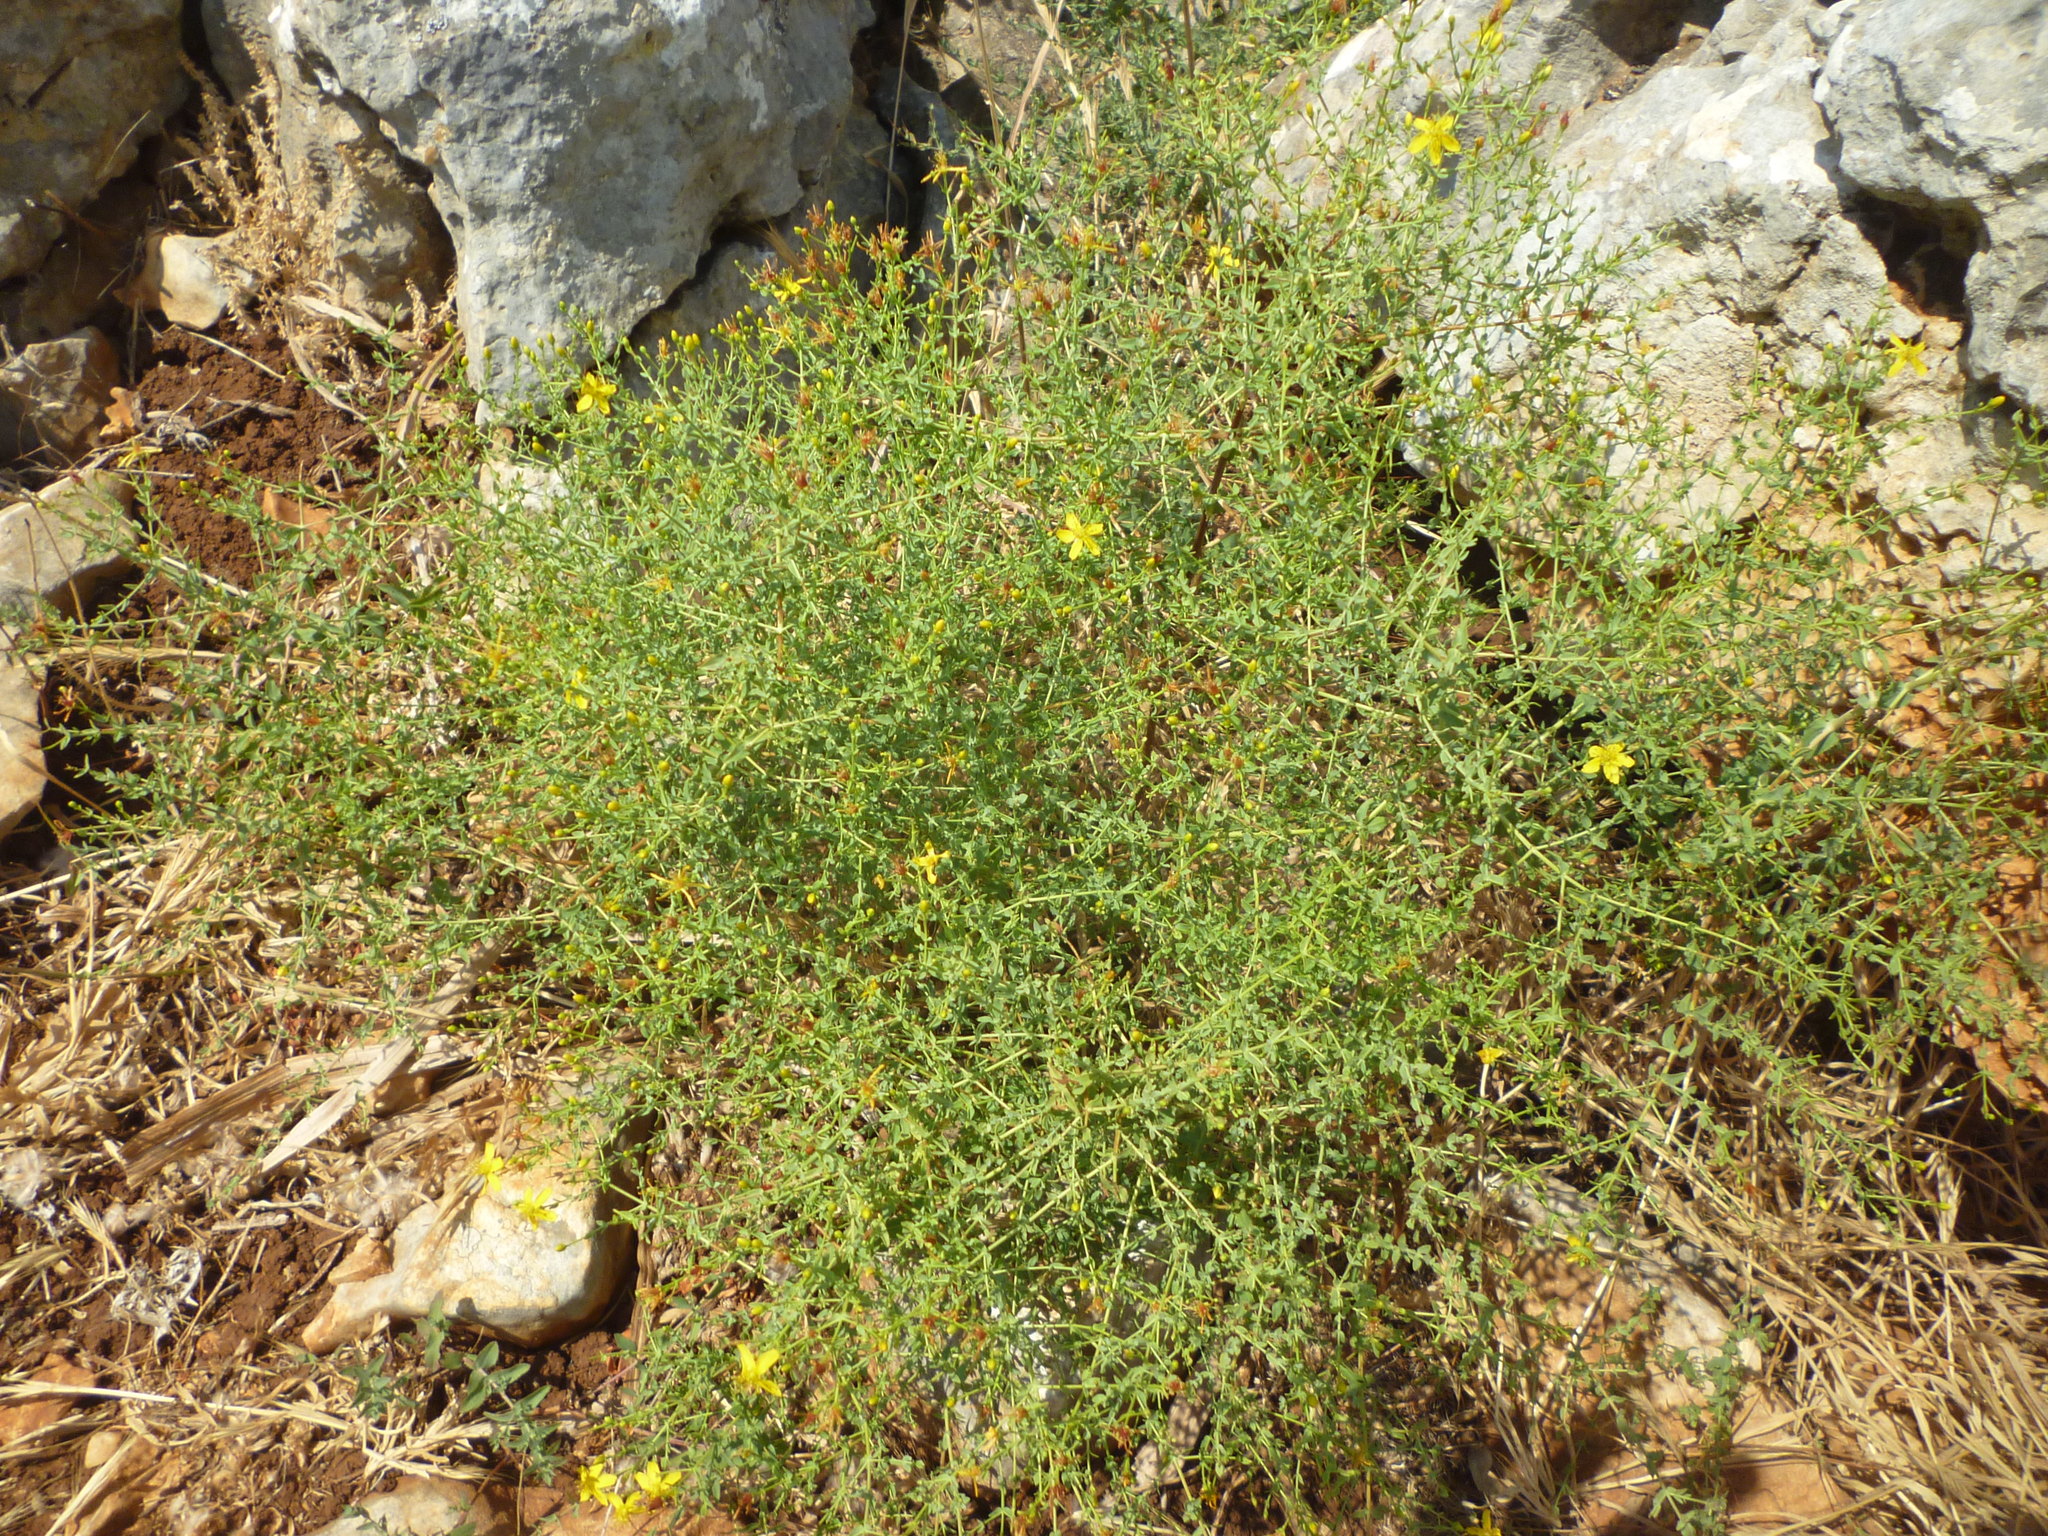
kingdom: Plantae
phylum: Tracheophyta
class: Magnoliopsida
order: Malpighiales
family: Hypericaceae
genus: Hypericum
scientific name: Hypericum triquetrifolium
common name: Tangled hypericum
